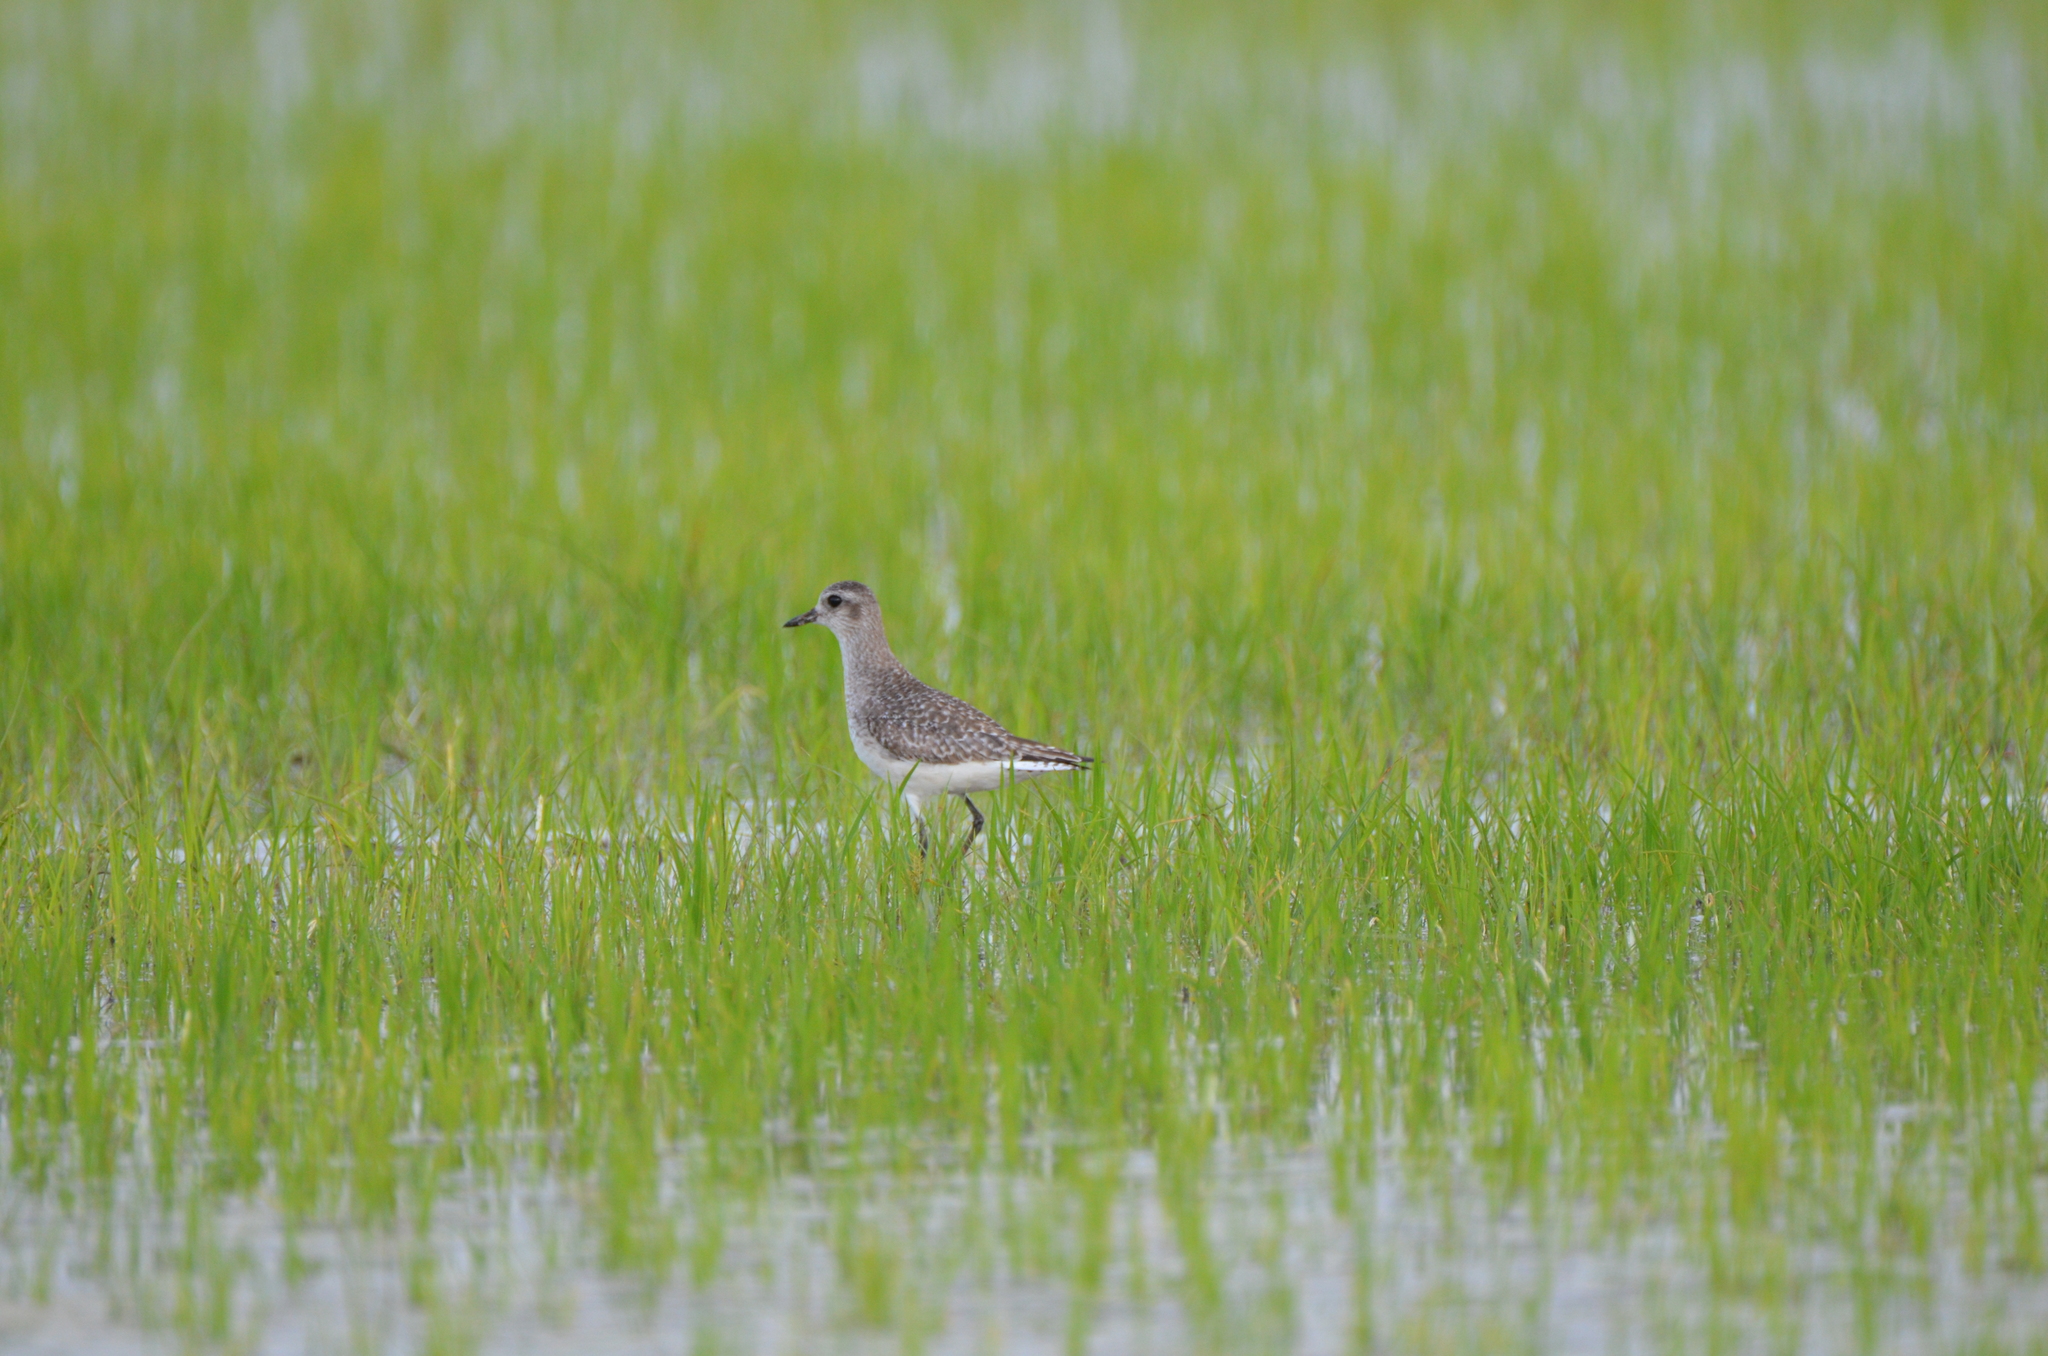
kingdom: Animalia
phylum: Chordata
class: Aves
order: Charadriiformes
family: Charadriidae
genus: Pluvialis
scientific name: Pluvialis squatarola
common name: Grey plover
